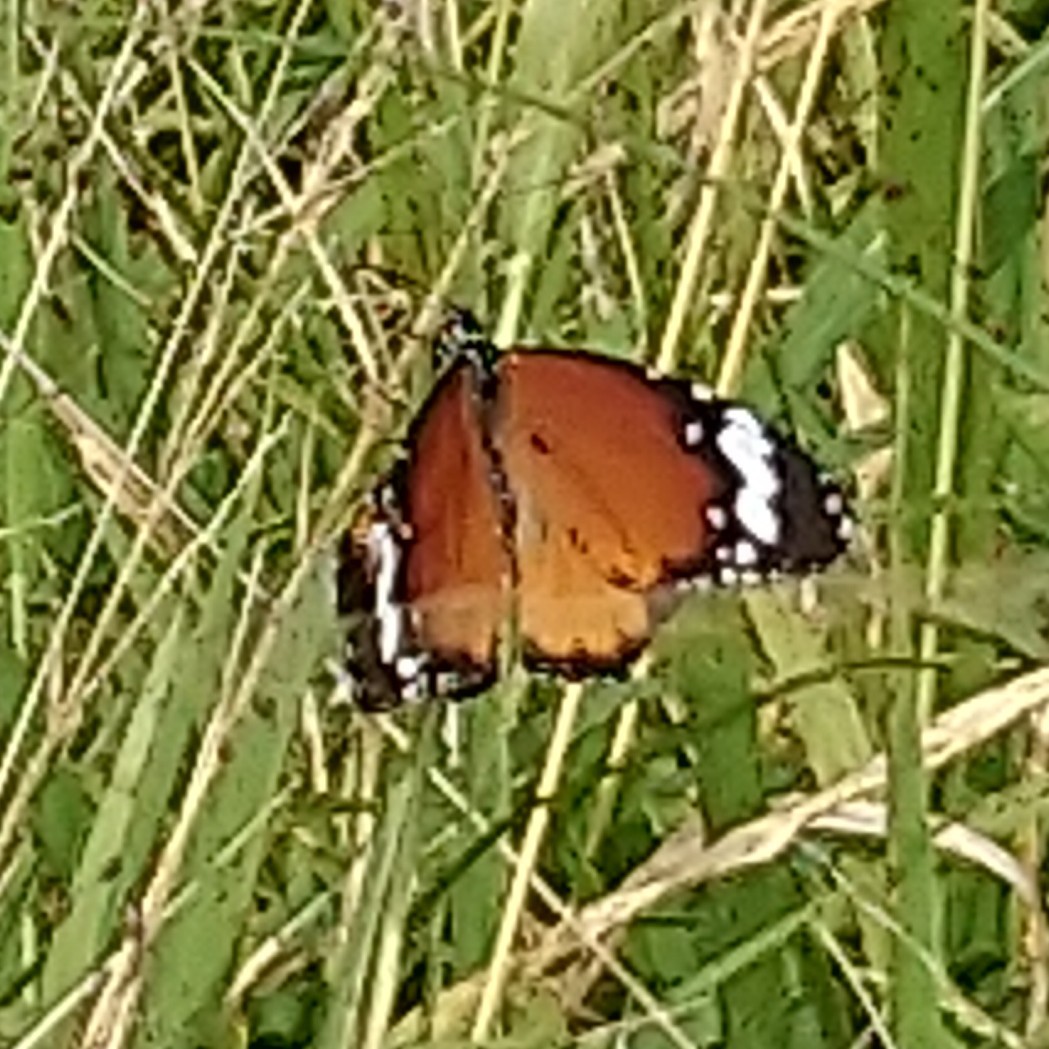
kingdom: Animalia
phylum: Arthropoda
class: Insecta
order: Lepidoptera
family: Nymphalidae
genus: Danaus
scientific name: Danaus chrysippus
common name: Plain tiger
